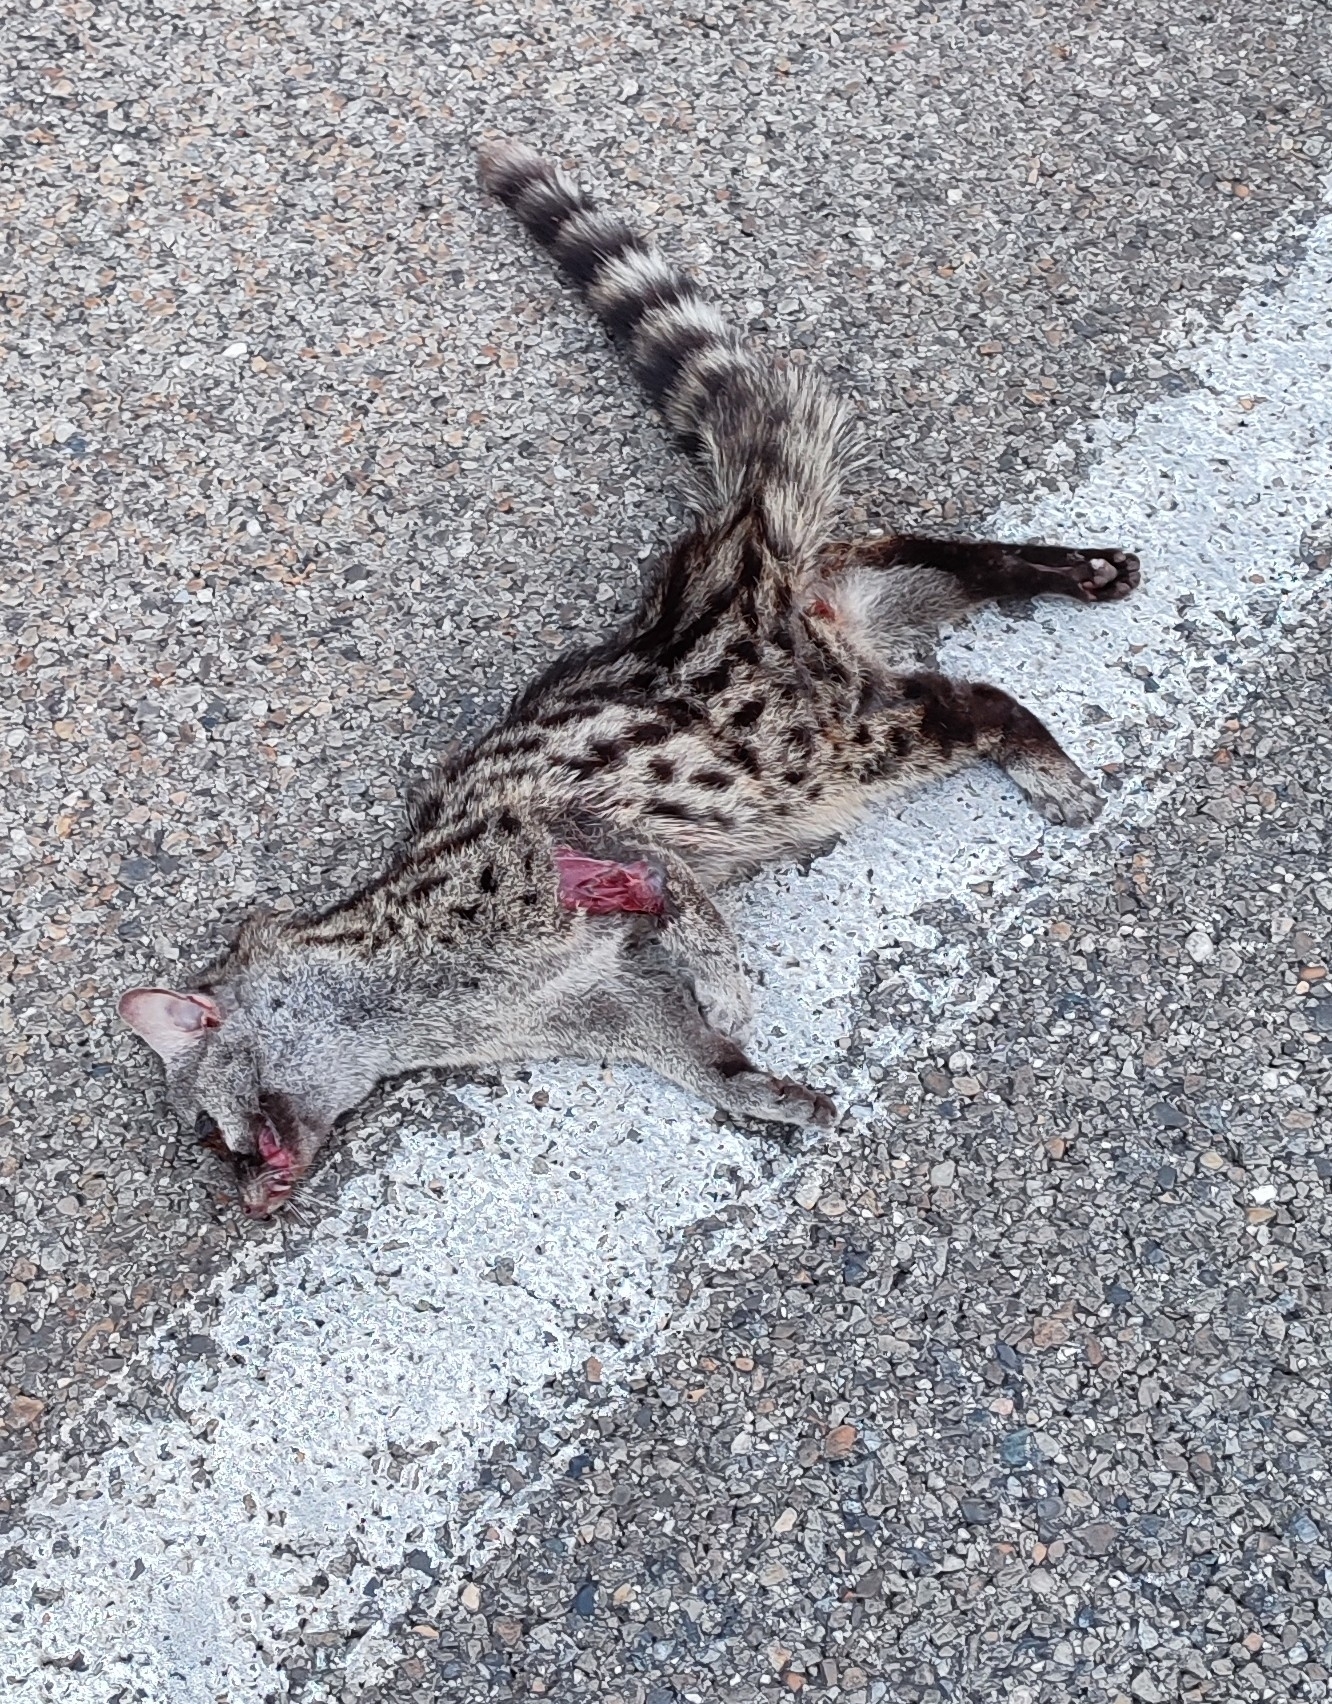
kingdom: Animalia
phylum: Chordata
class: Mammalia
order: Carnivora
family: Viverridae
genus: Genetta
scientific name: Genetta genetta
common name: Common genet
